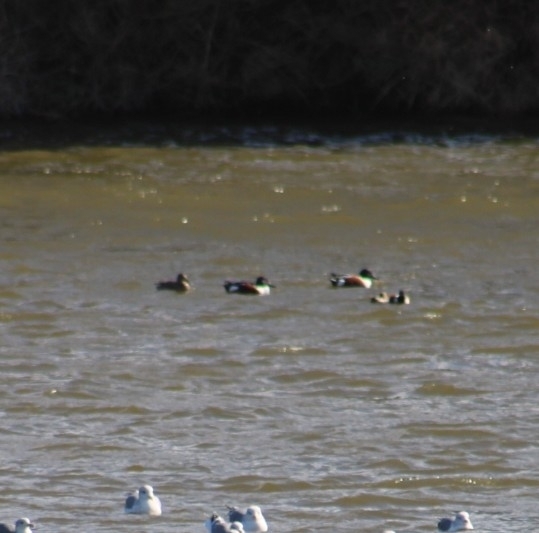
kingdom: Animalia
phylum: Chordata
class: Aves
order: Anseriformes
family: Anatidae
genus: Spatula
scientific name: Spatula clypeata
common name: Northern shoveler
